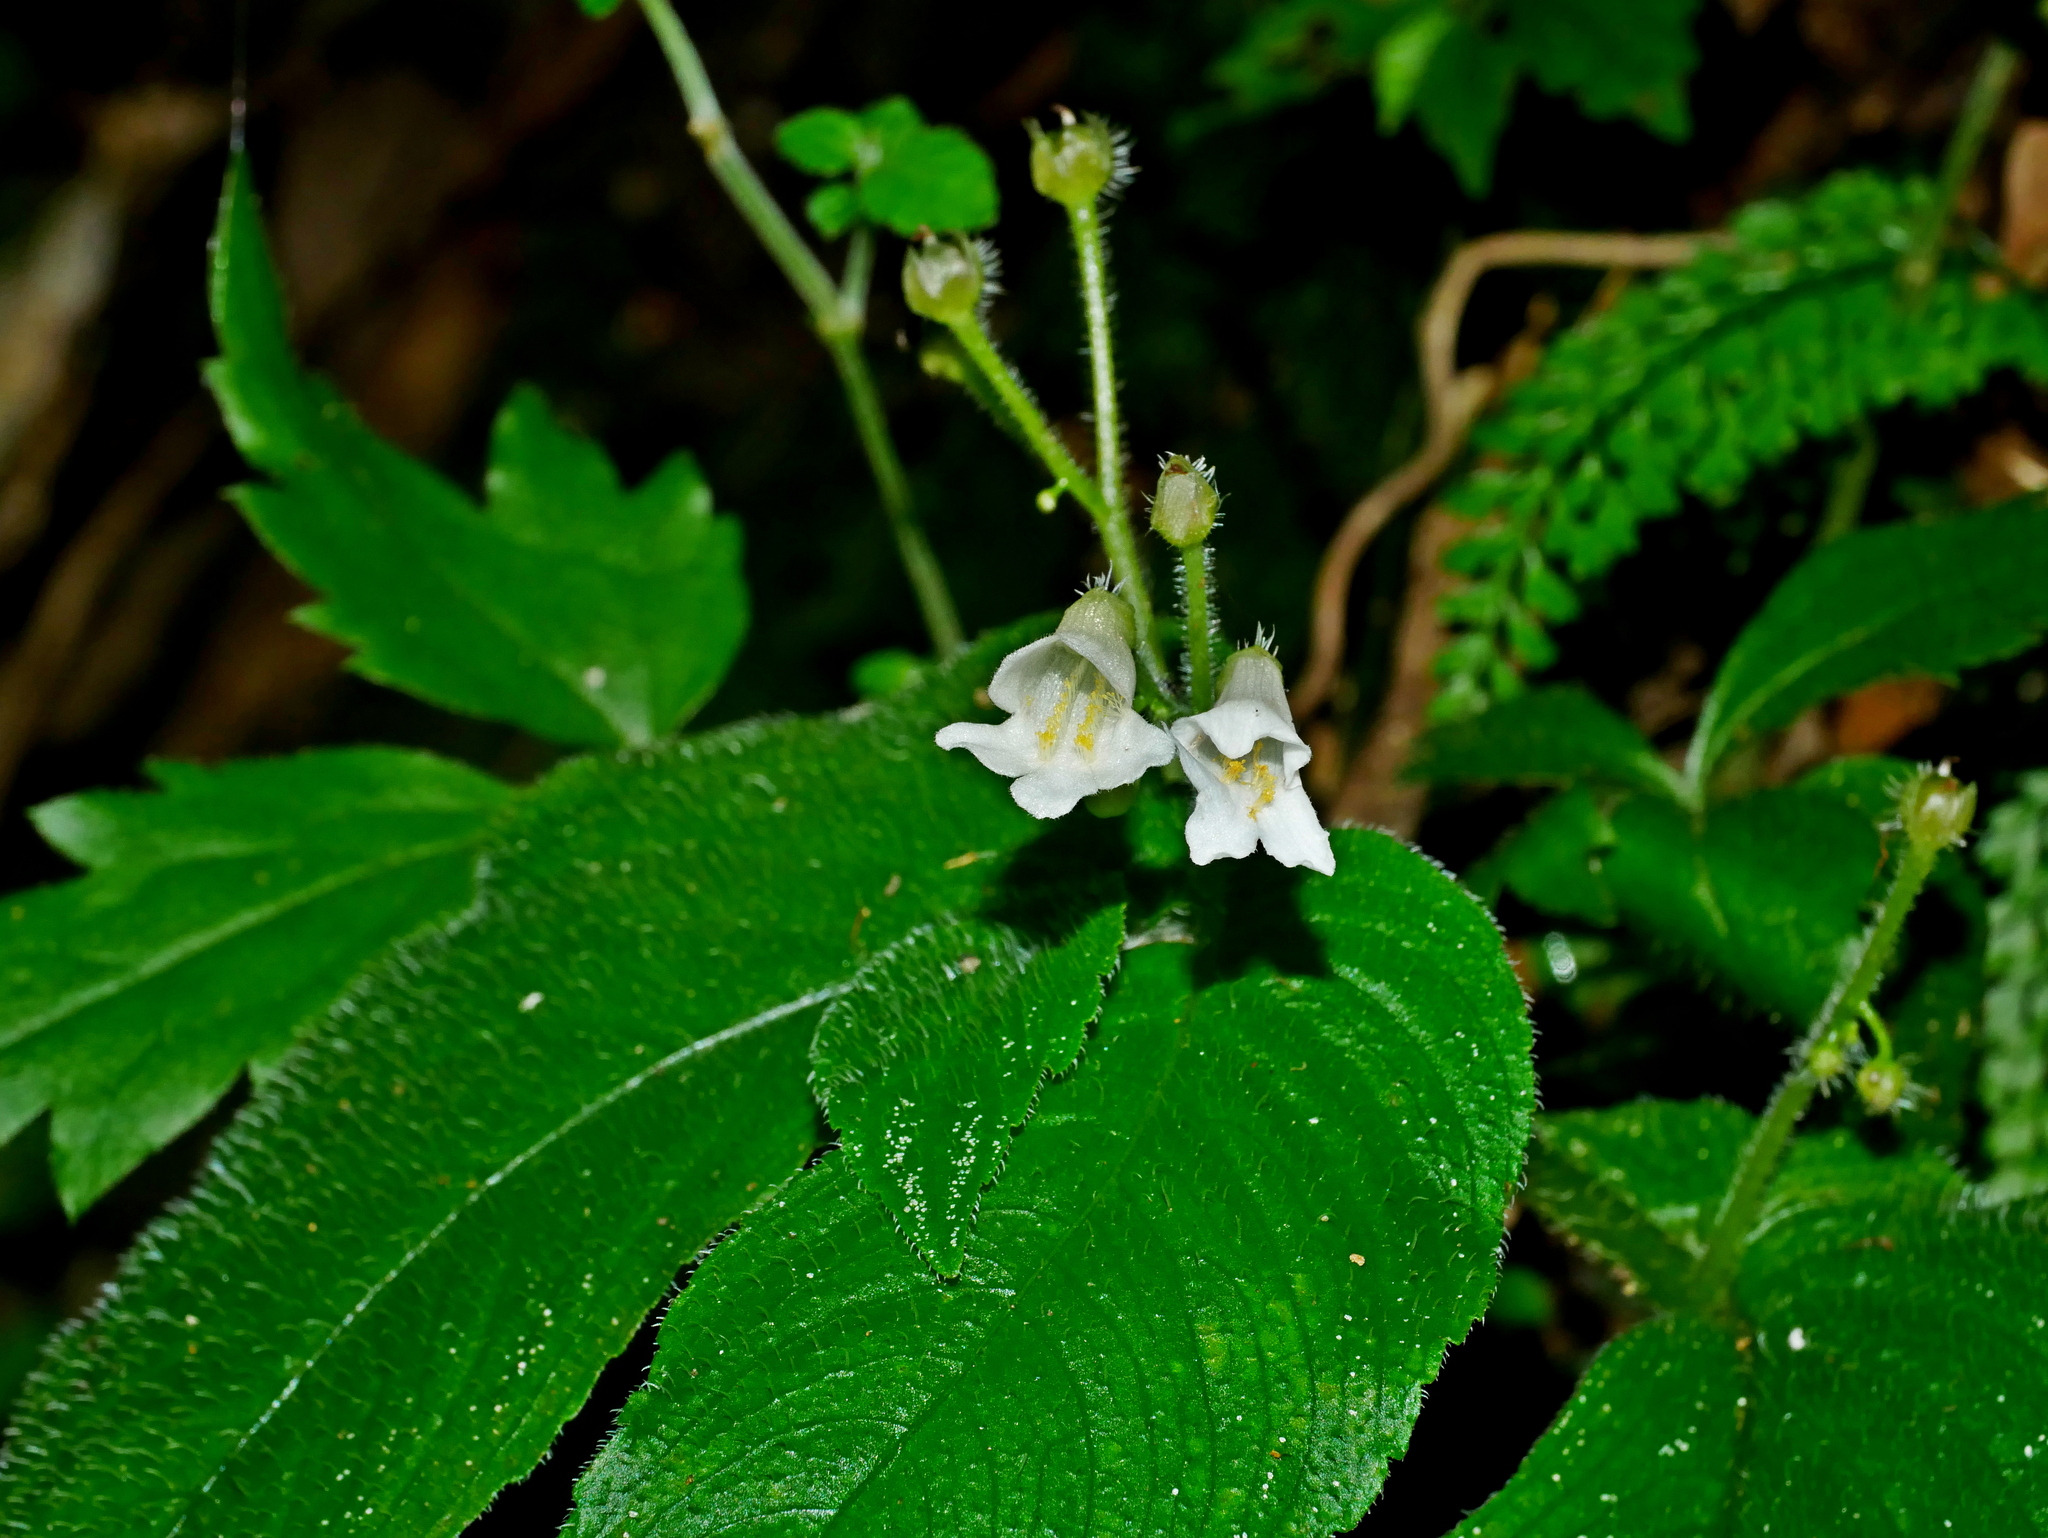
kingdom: Plantae
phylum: Tracheophyta
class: Magnoliopsida
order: Lamiales
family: Gesneriaceae
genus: Whytockia
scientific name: Whytockia sasakii
